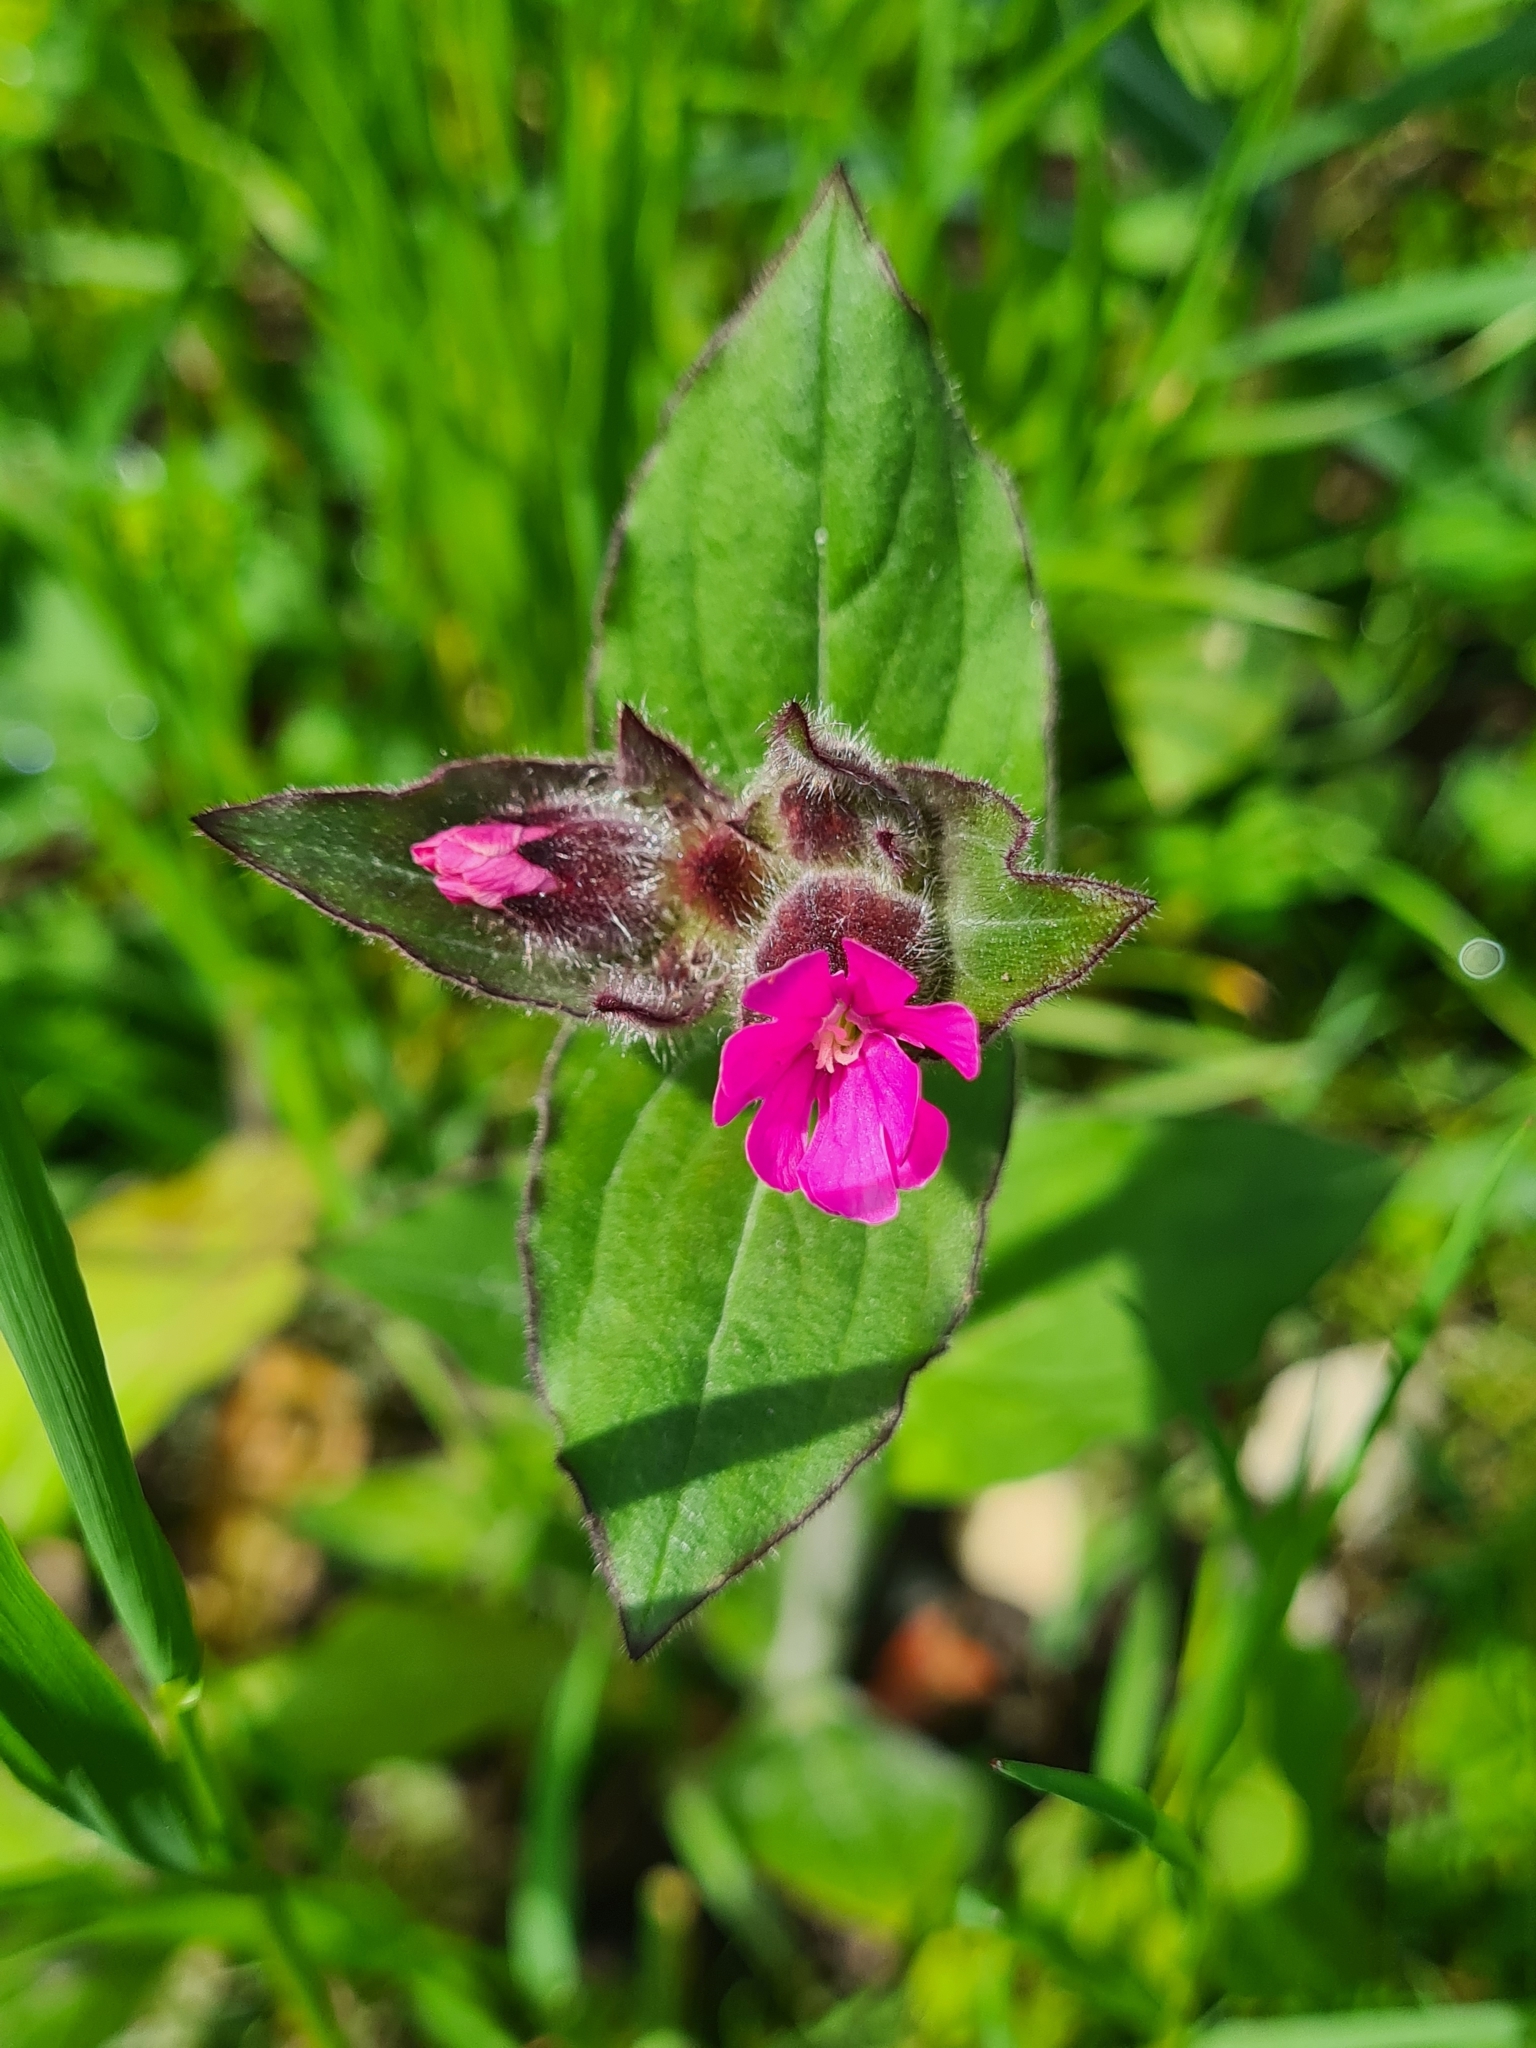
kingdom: Plantae
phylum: Tracheophyta
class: Magnoliopsida
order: Caryophyllales
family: Caryophyllaceae
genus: Silene
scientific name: Silene dioica
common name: Red campion
